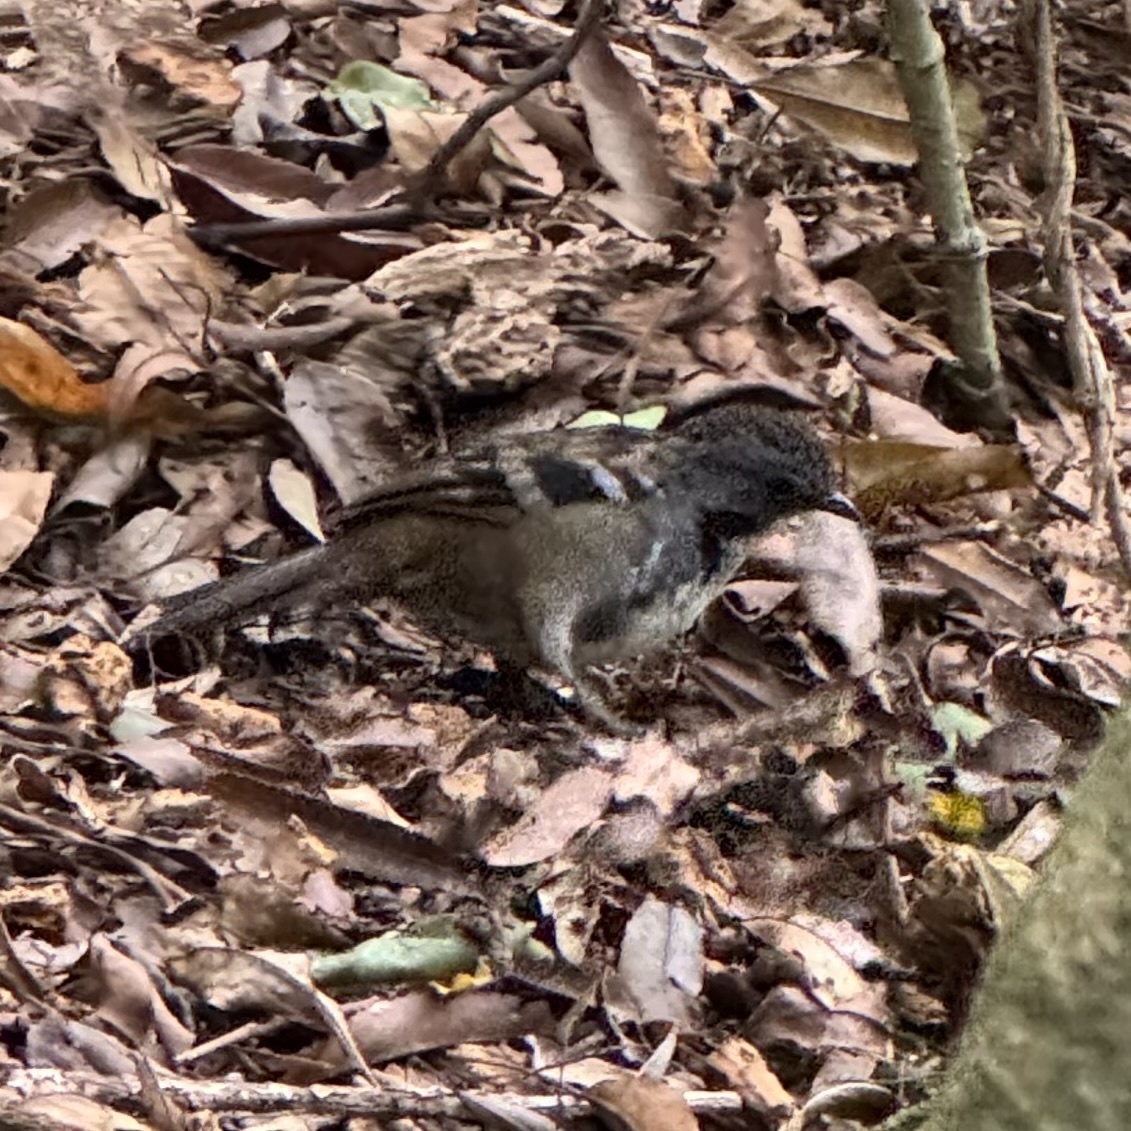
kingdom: Animalia
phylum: Chordata
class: Aves
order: Passeriformes
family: Orthonychidae
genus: Orthonyx
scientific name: Orthonyx temminckii
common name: Australian logrunner
